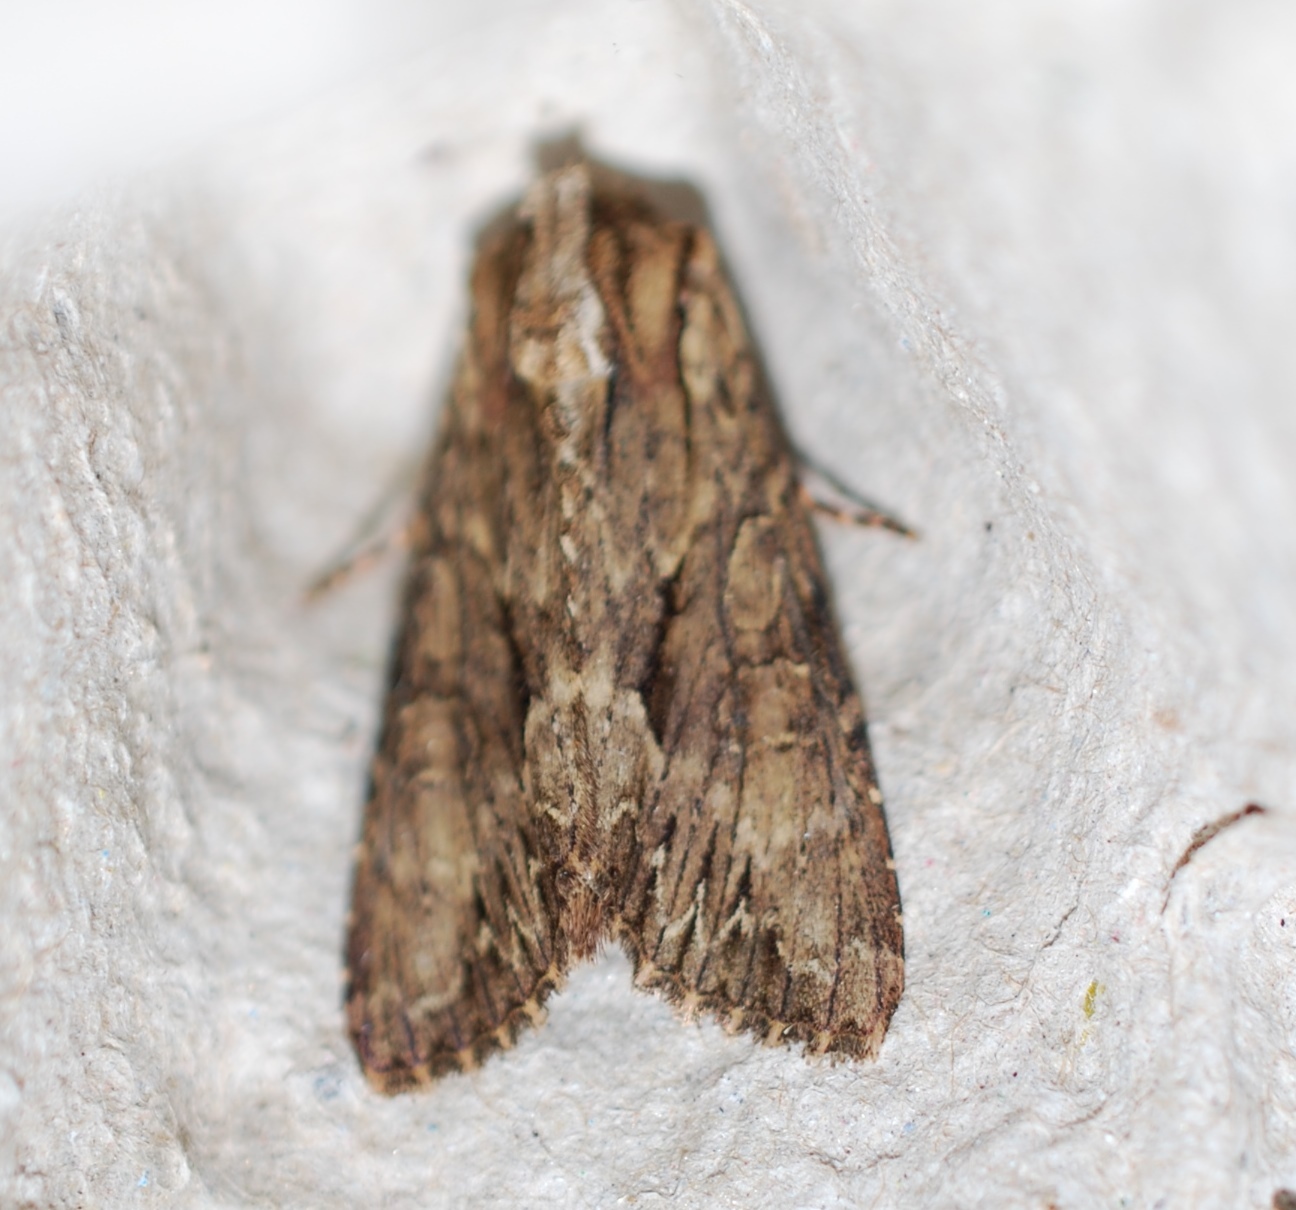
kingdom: Animalia
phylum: Arthropoda
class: Insecta
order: Lepidoptera
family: Noctuidae
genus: Apamea
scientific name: Apamea monoglypha
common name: Dark arches
